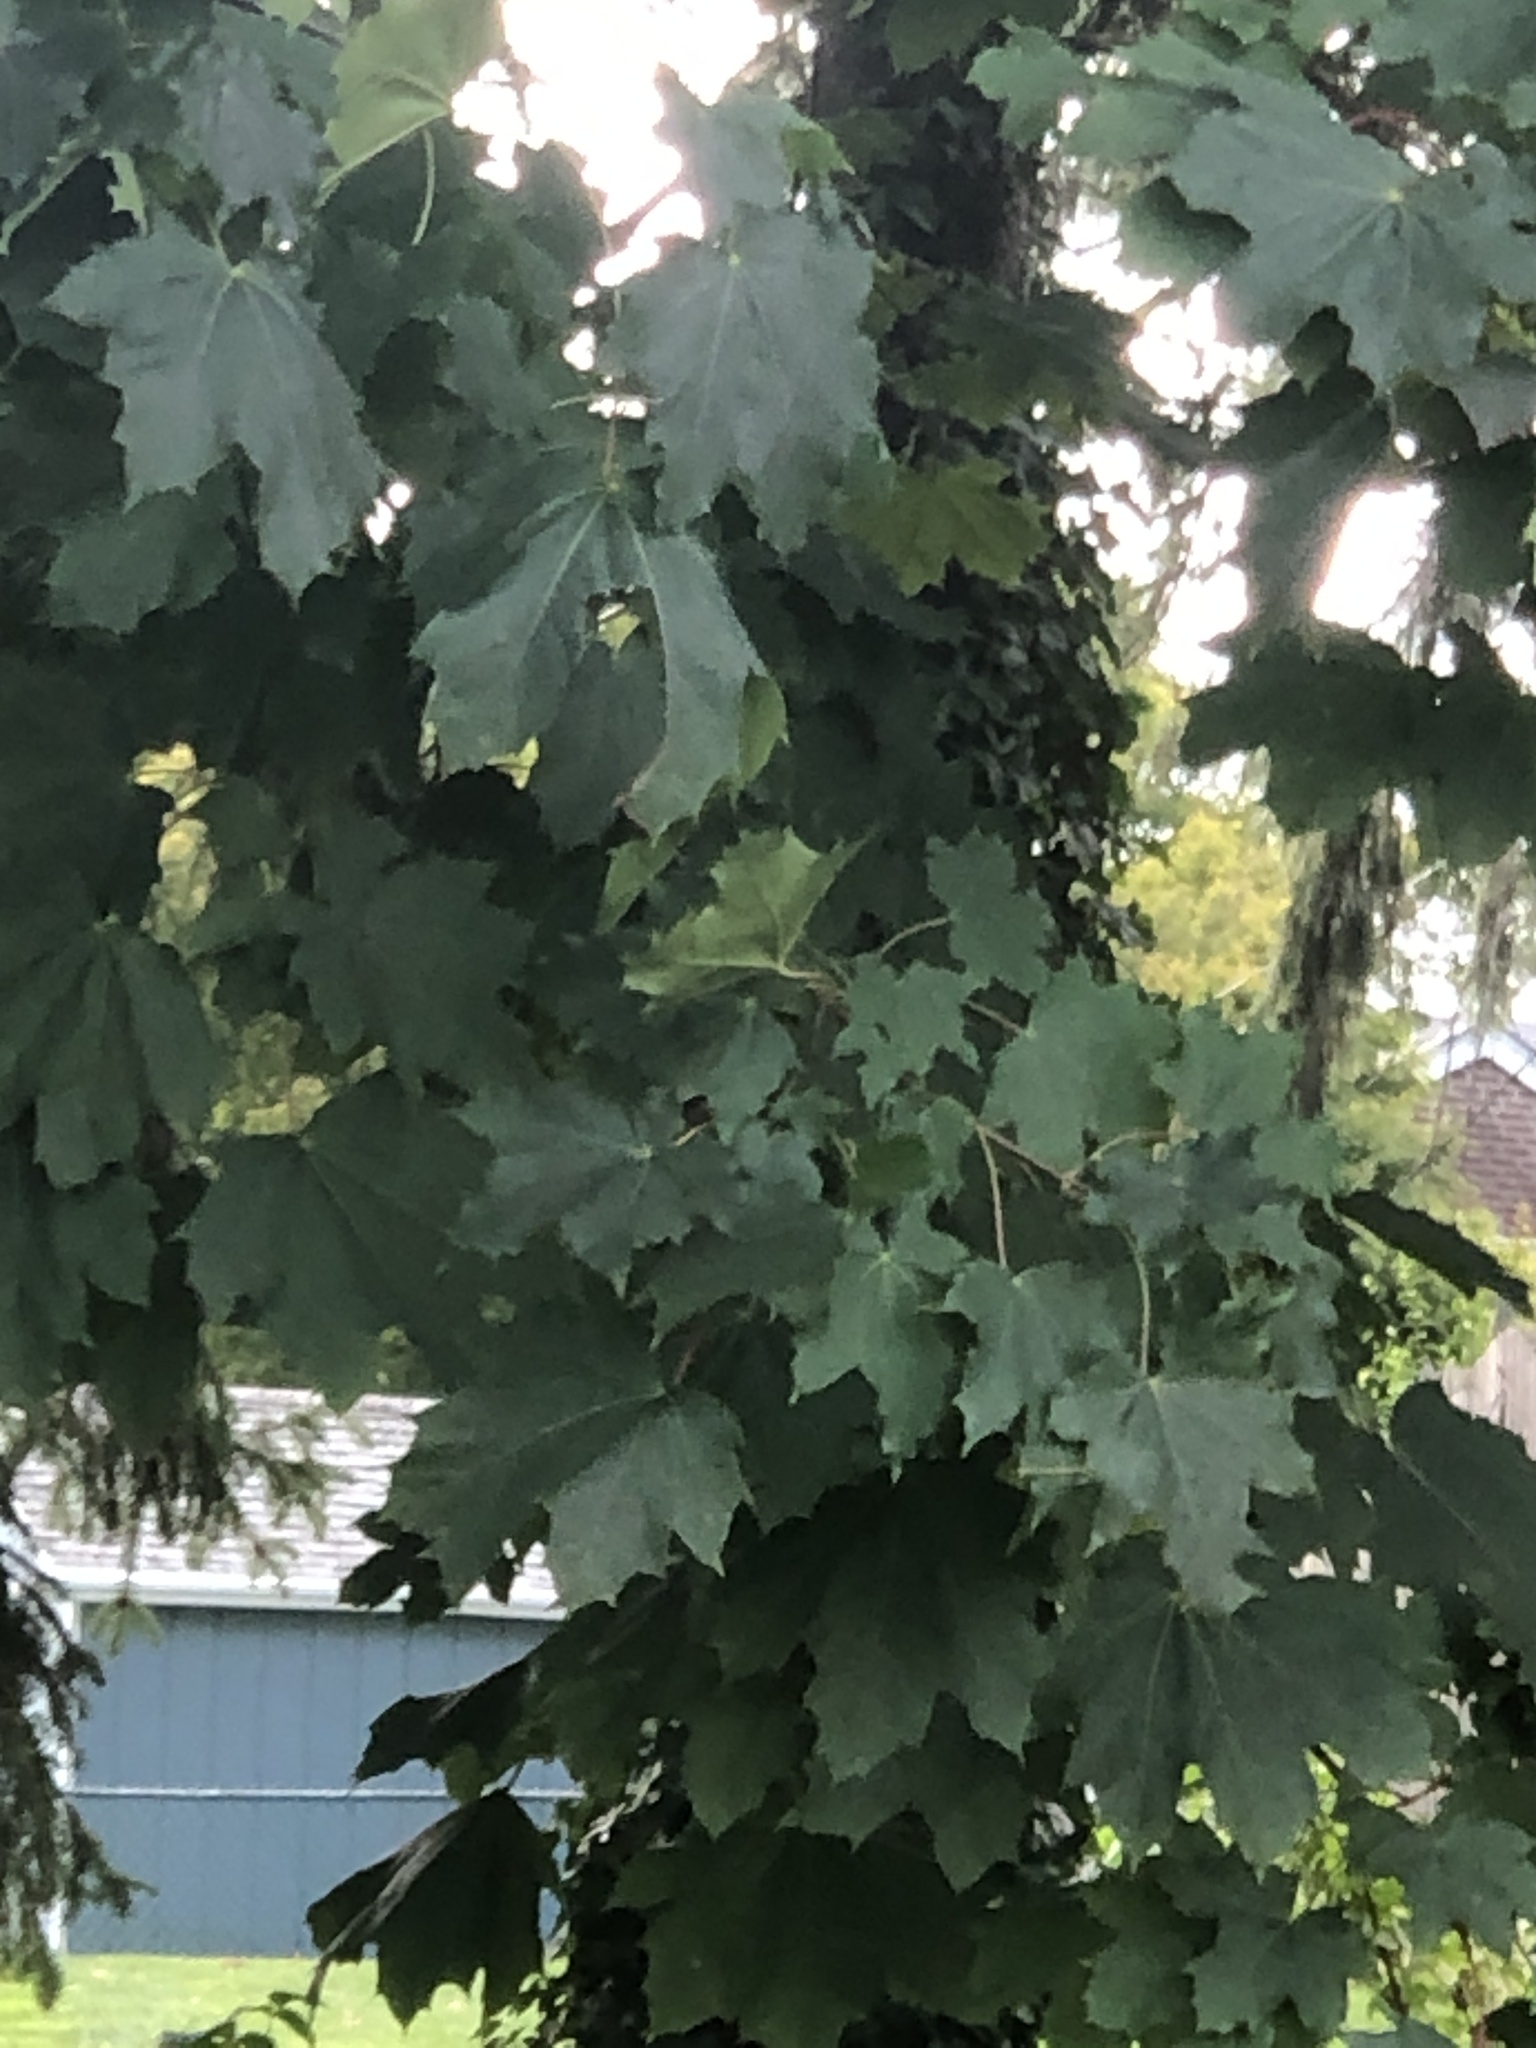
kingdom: Plantae
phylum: Tracheophyta
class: Magnoliopsida
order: Sapindales
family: Sapindaceae
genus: Acer
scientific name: Acer platanoides
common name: Norway maple
